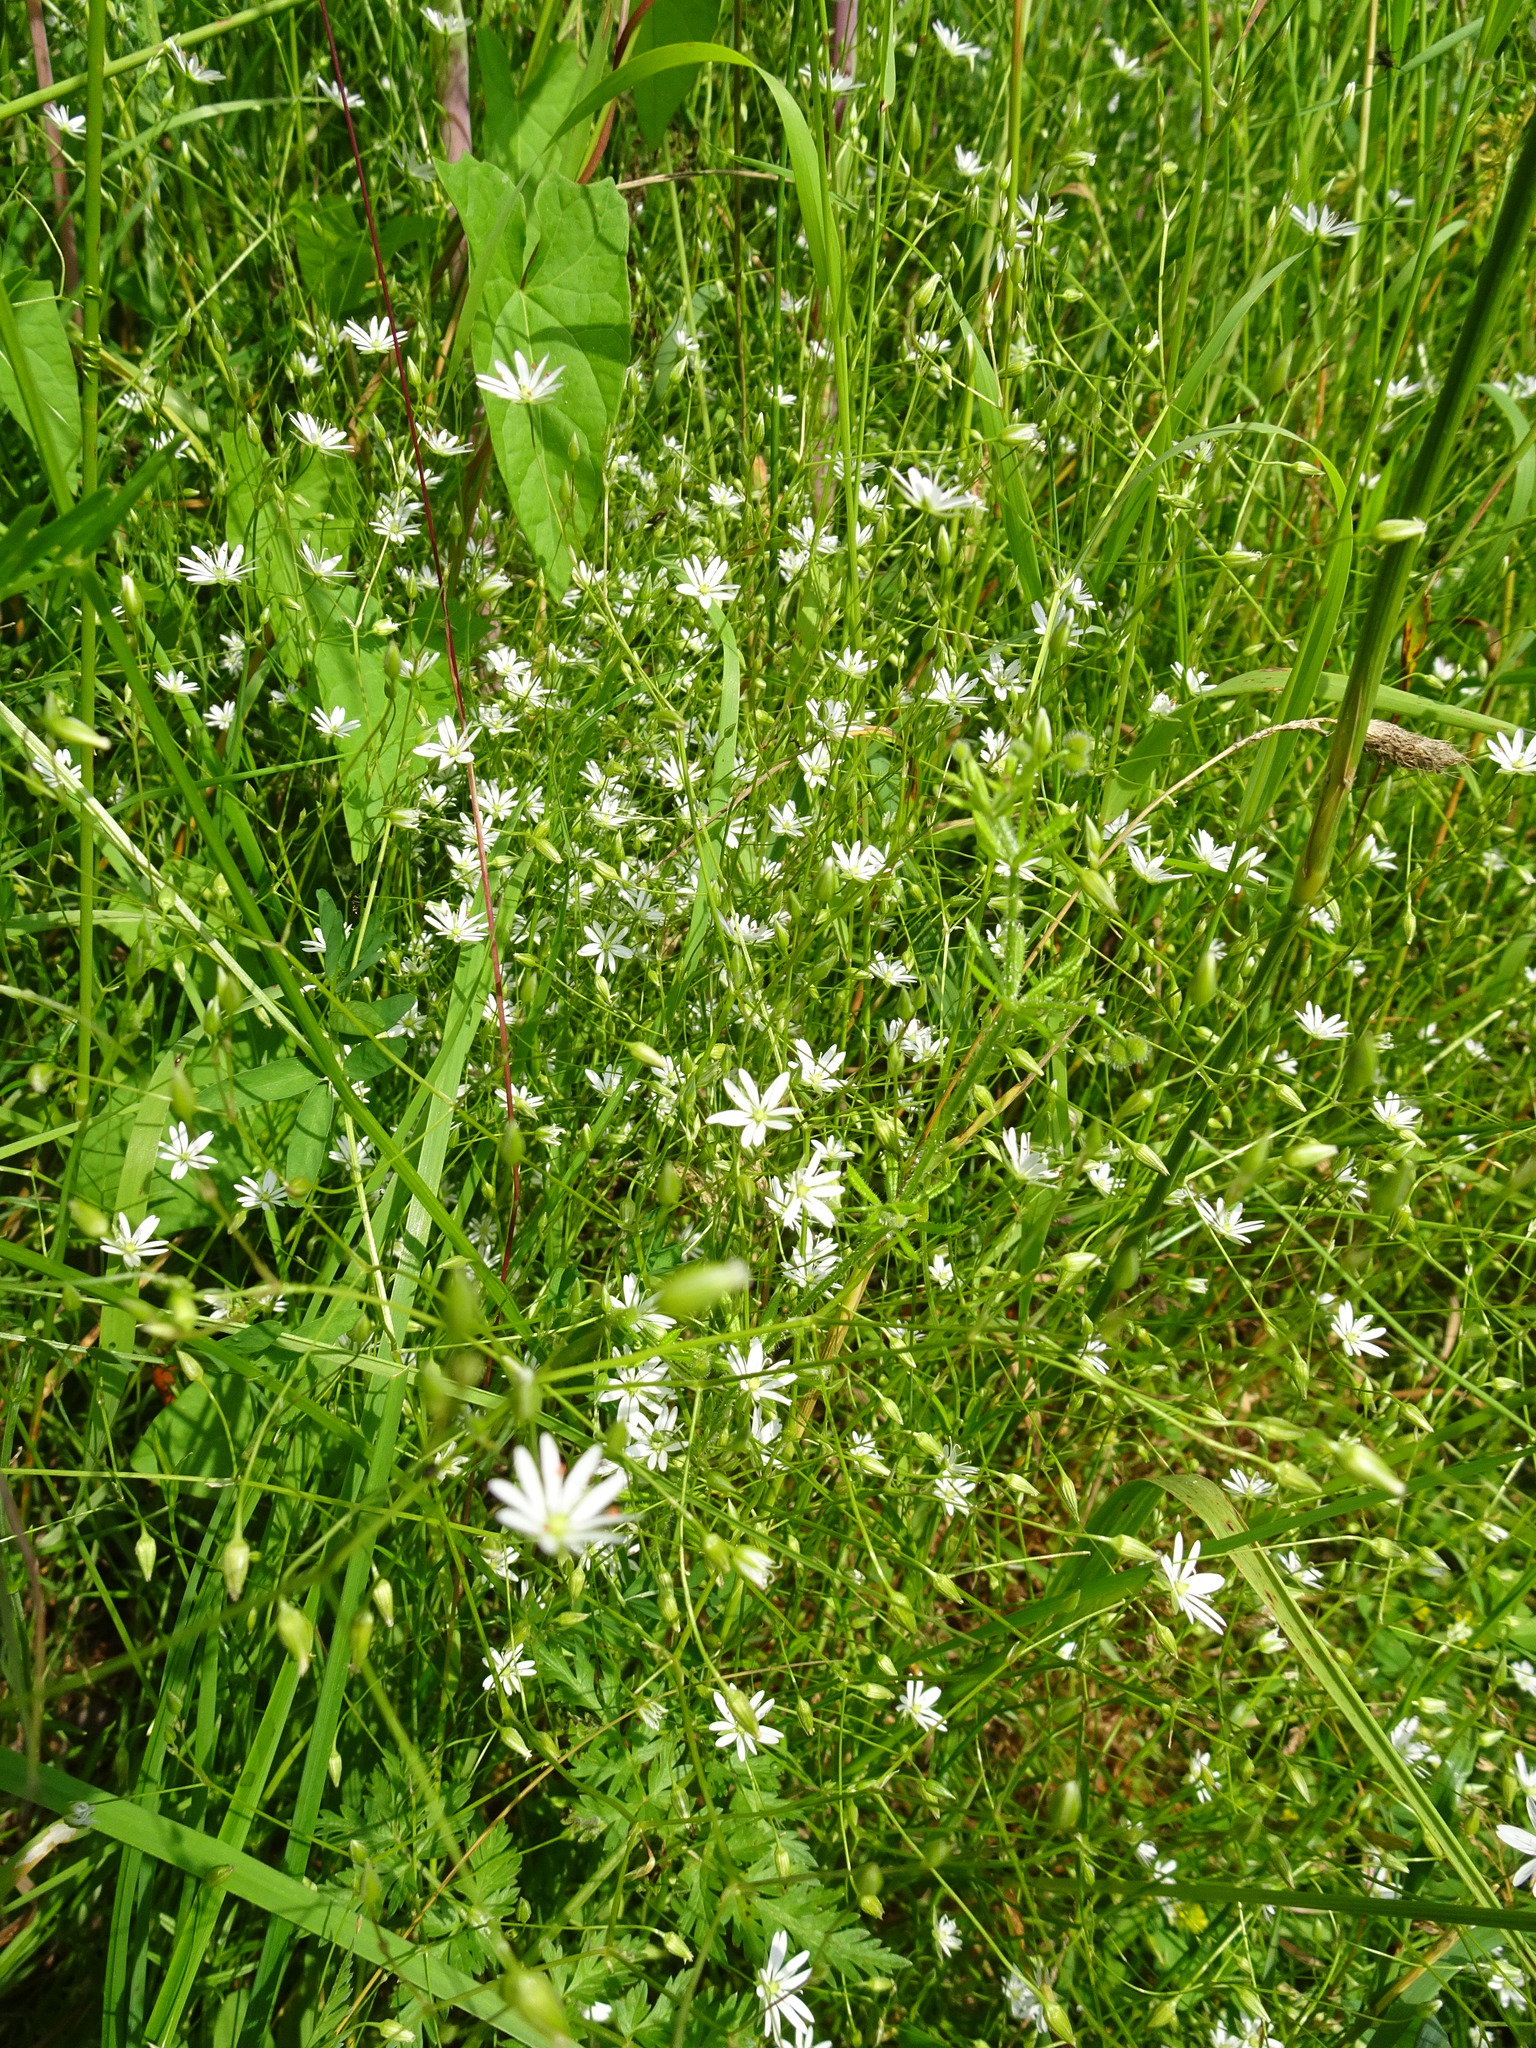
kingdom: Plantae
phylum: Tracheophyta
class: Magnoliopsida
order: Caryophyllales
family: Caryophyllaceae
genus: Stellaria
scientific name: Stellaria graminea
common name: Grass-like starwort
